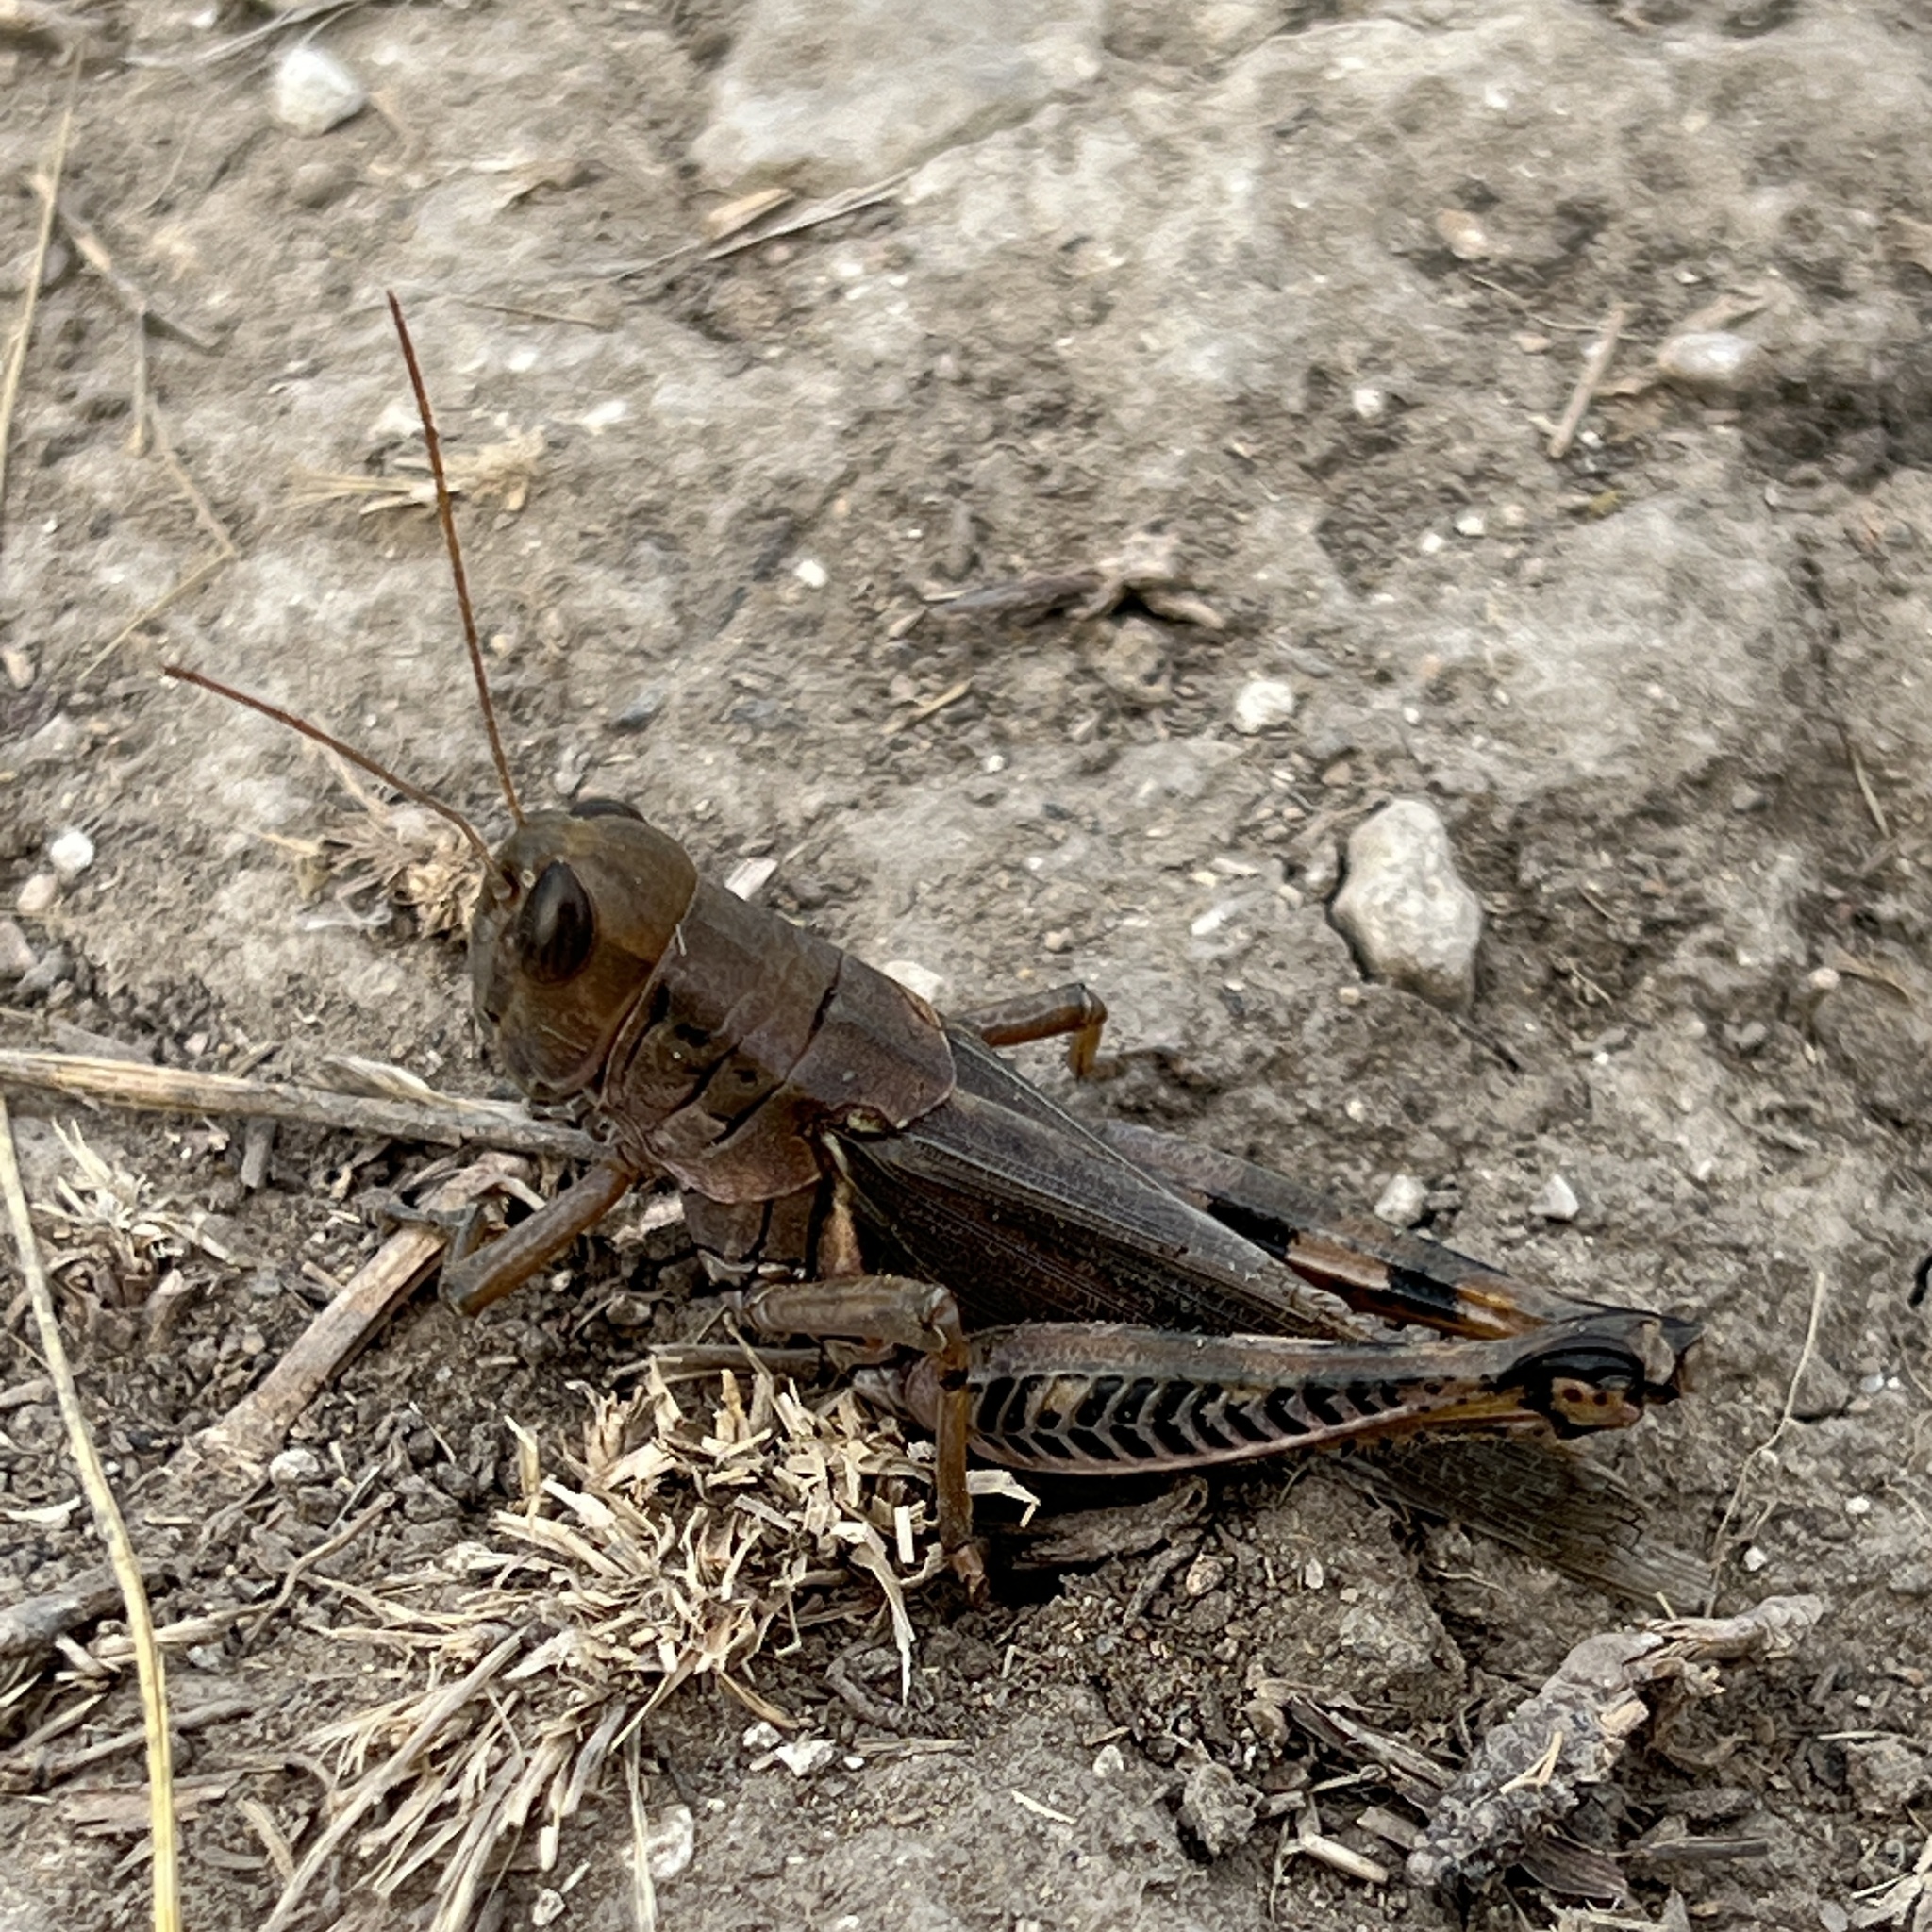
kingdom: Animalia
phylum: Arthropoda
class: Insecta
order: Orthoptera
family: Acrididae
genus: Melanoplus
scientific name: Melanoplus differentialis
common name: Differential grasshopper
